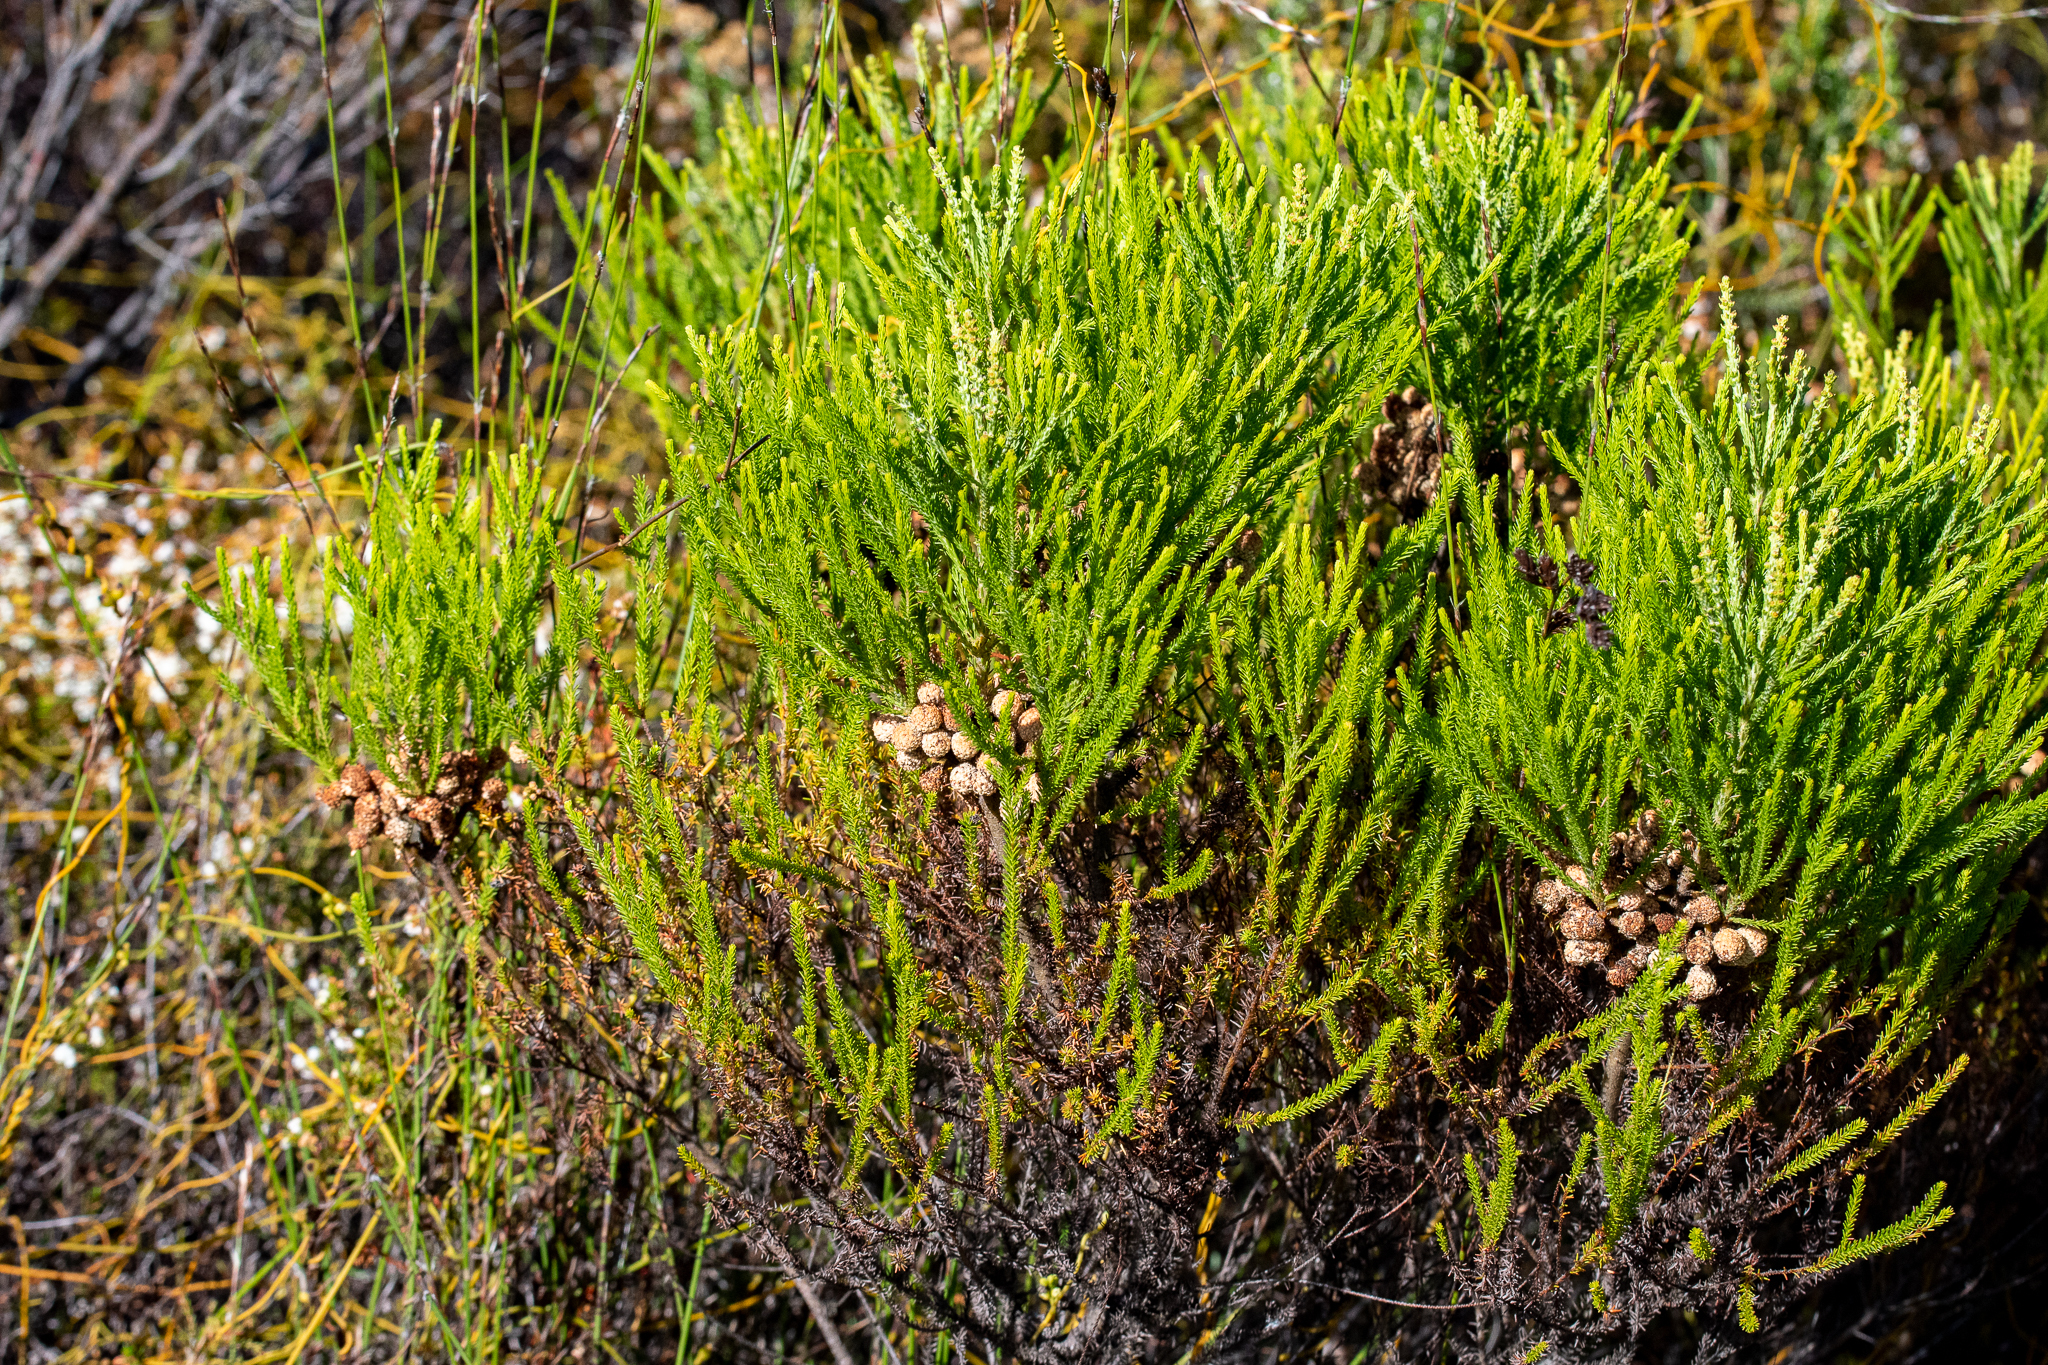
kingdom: Plantae
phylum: Tracheophyta
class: Magnoliopsida
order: Bruniales
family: Bruniaceae
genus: Berzelia
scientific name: Berzelia lanuginosa
